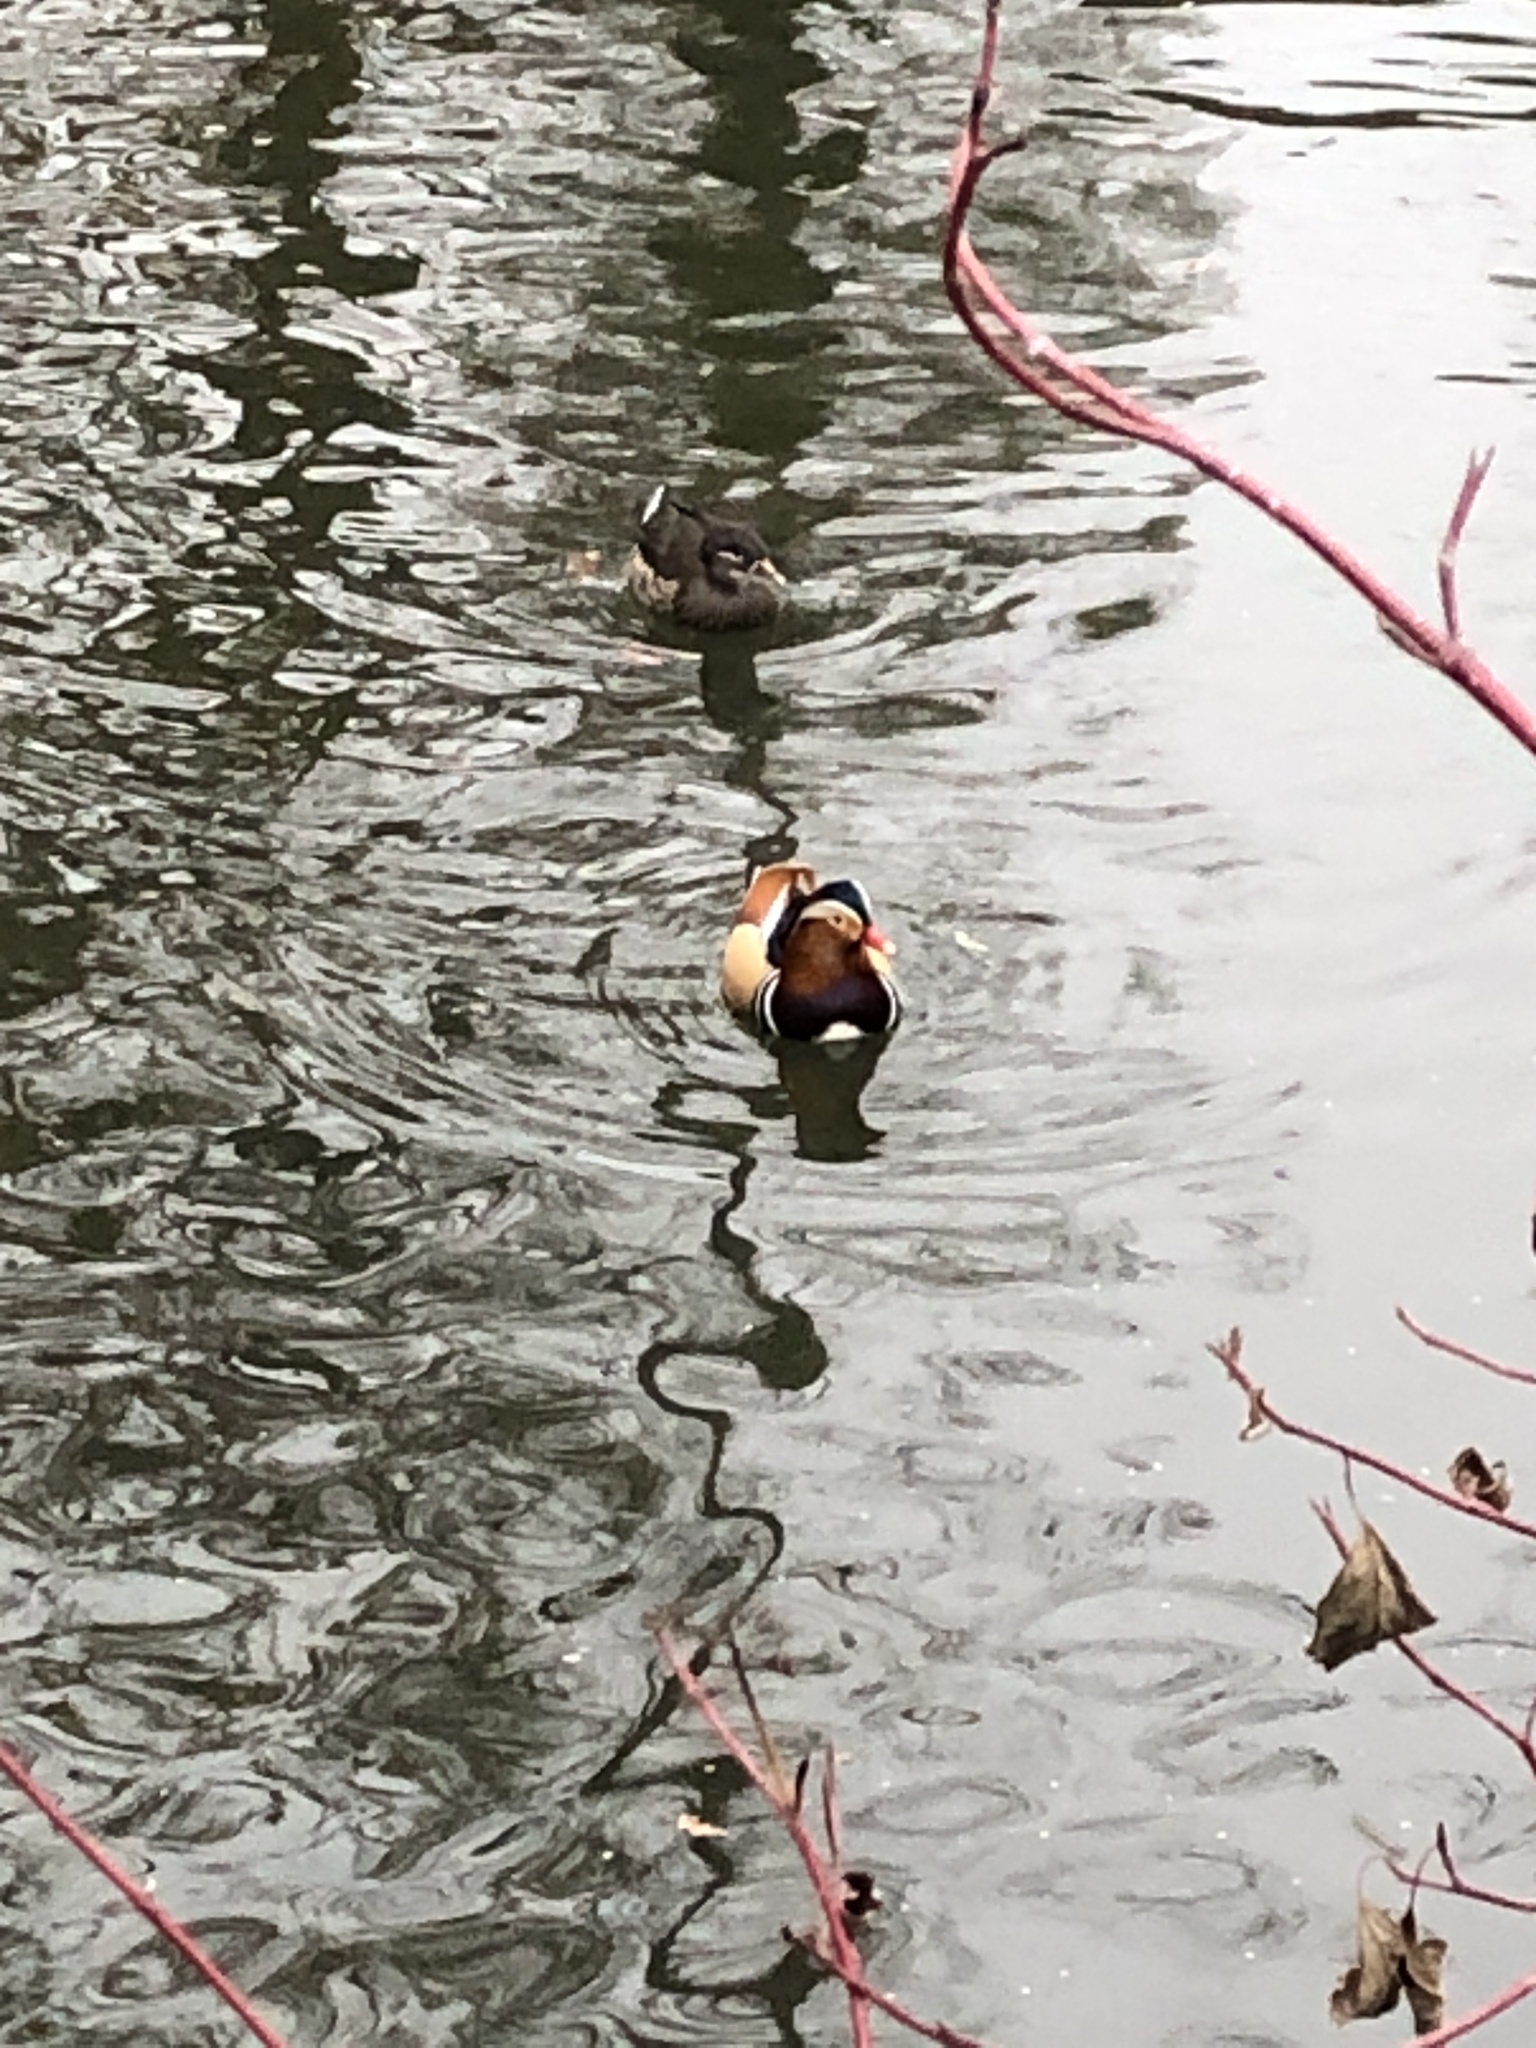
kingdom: Animalia
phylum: Chordata
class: Aves
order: Anseriformes
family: Anatidae
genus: Aix
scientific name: Aix galericulata
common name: Mandarin duck
